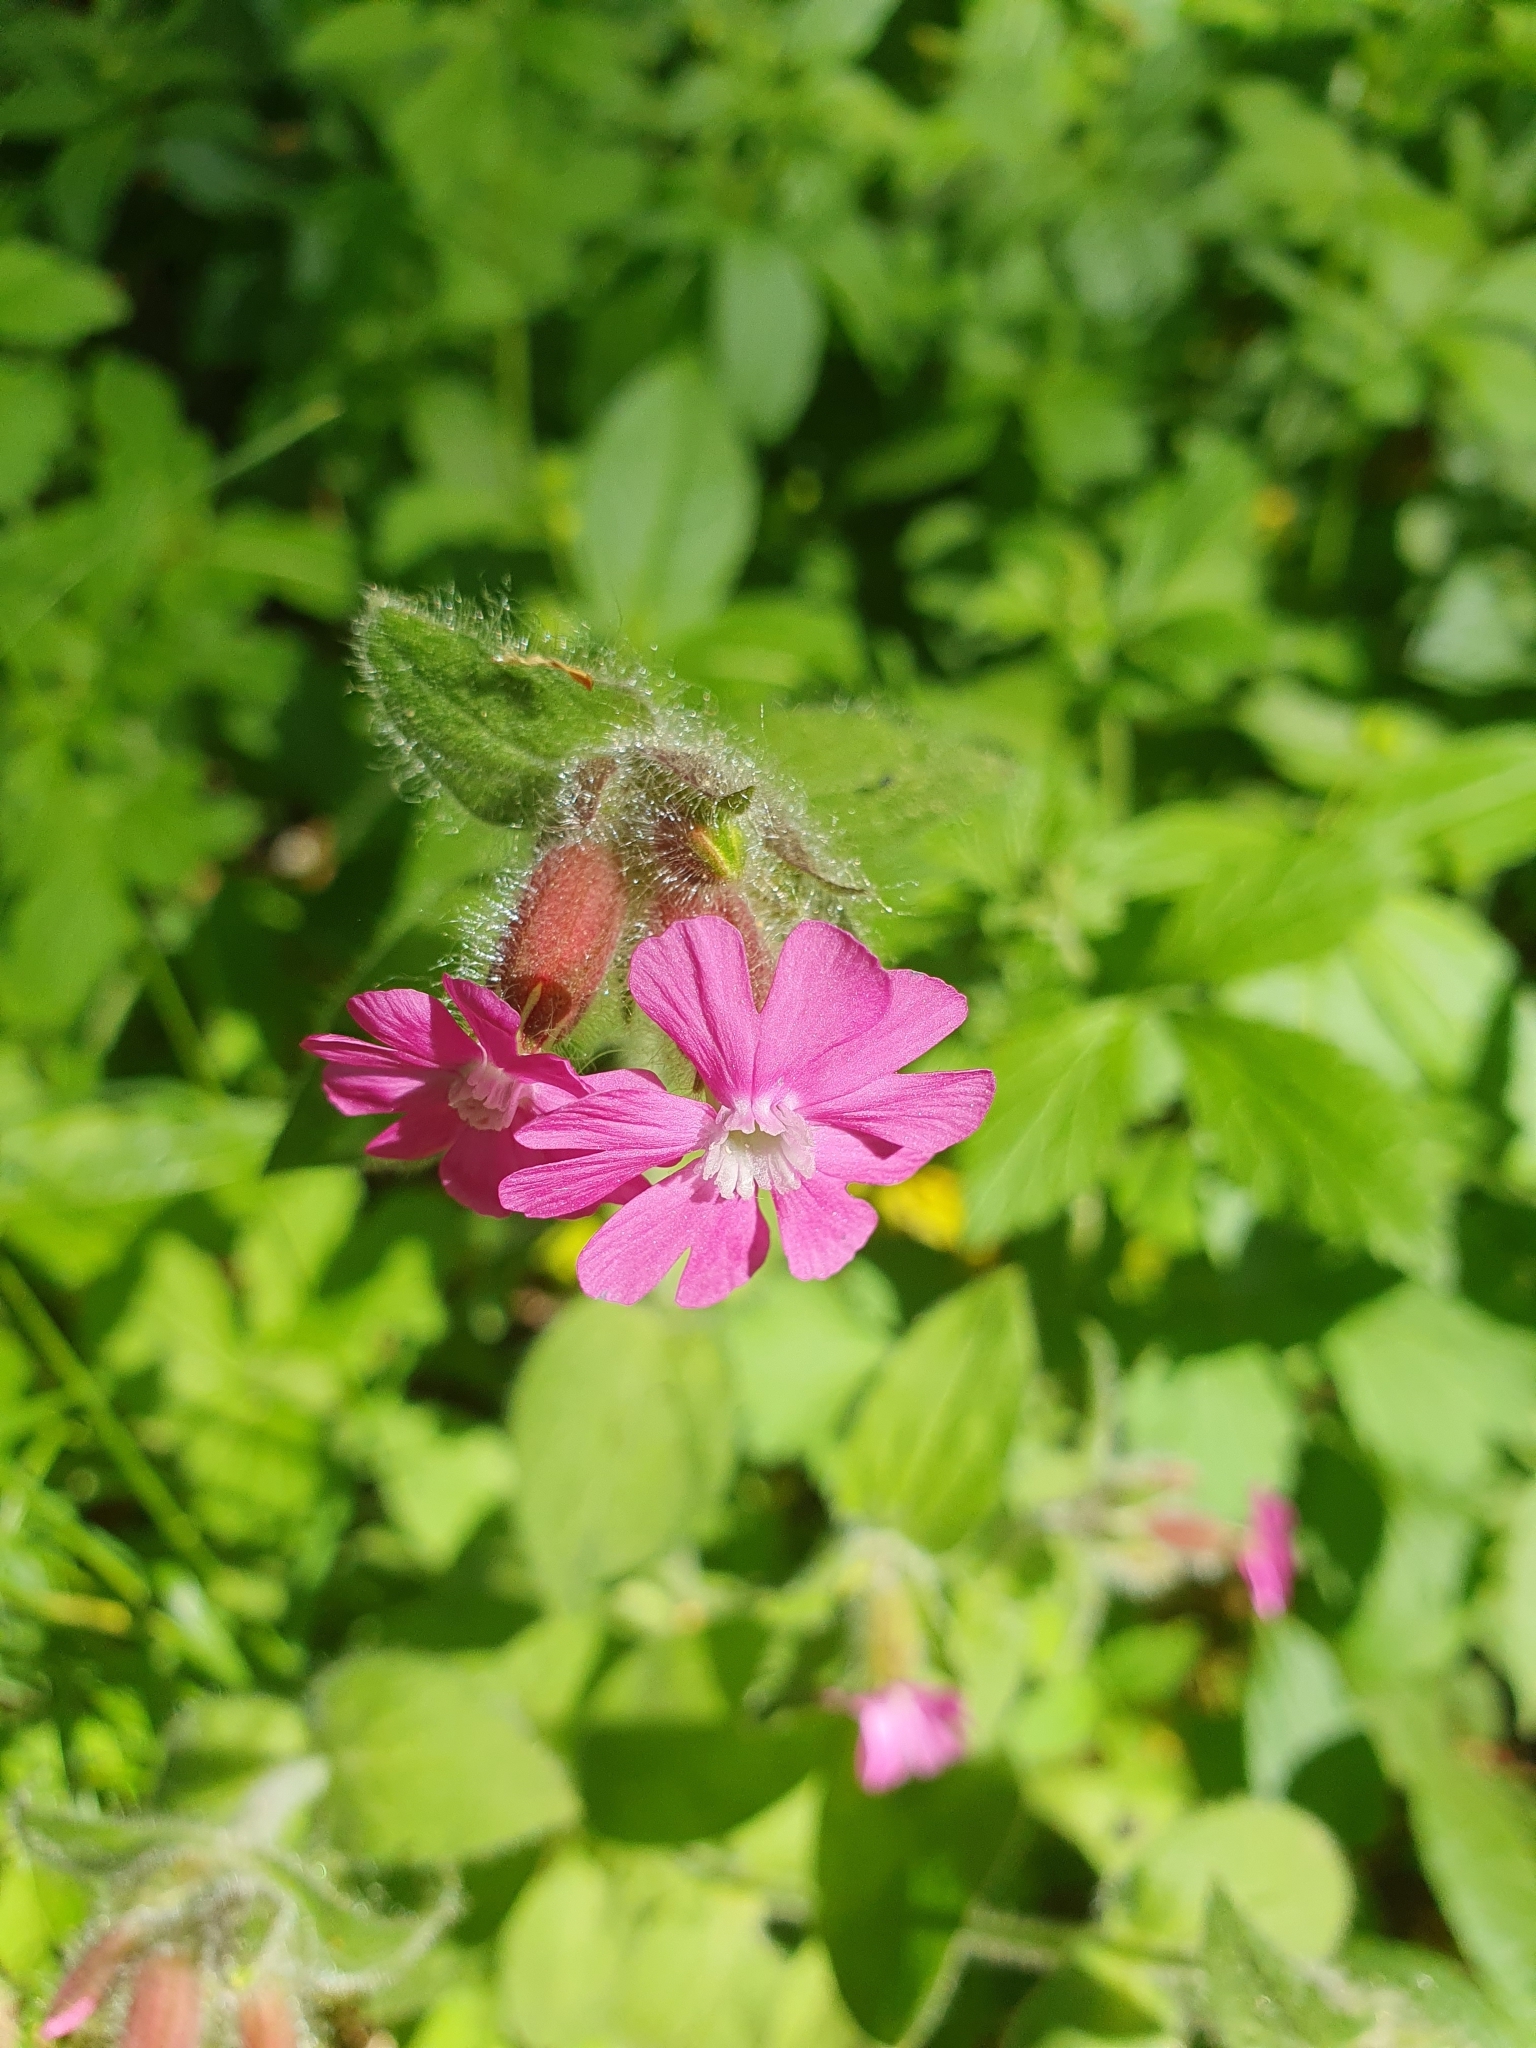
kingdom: Plantae
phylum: Tracheophyta
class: Magnoliopsida
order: Caryophyllales
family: Caryophyllaceae
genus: Silene
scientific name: Silene dioica
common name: Red campion
